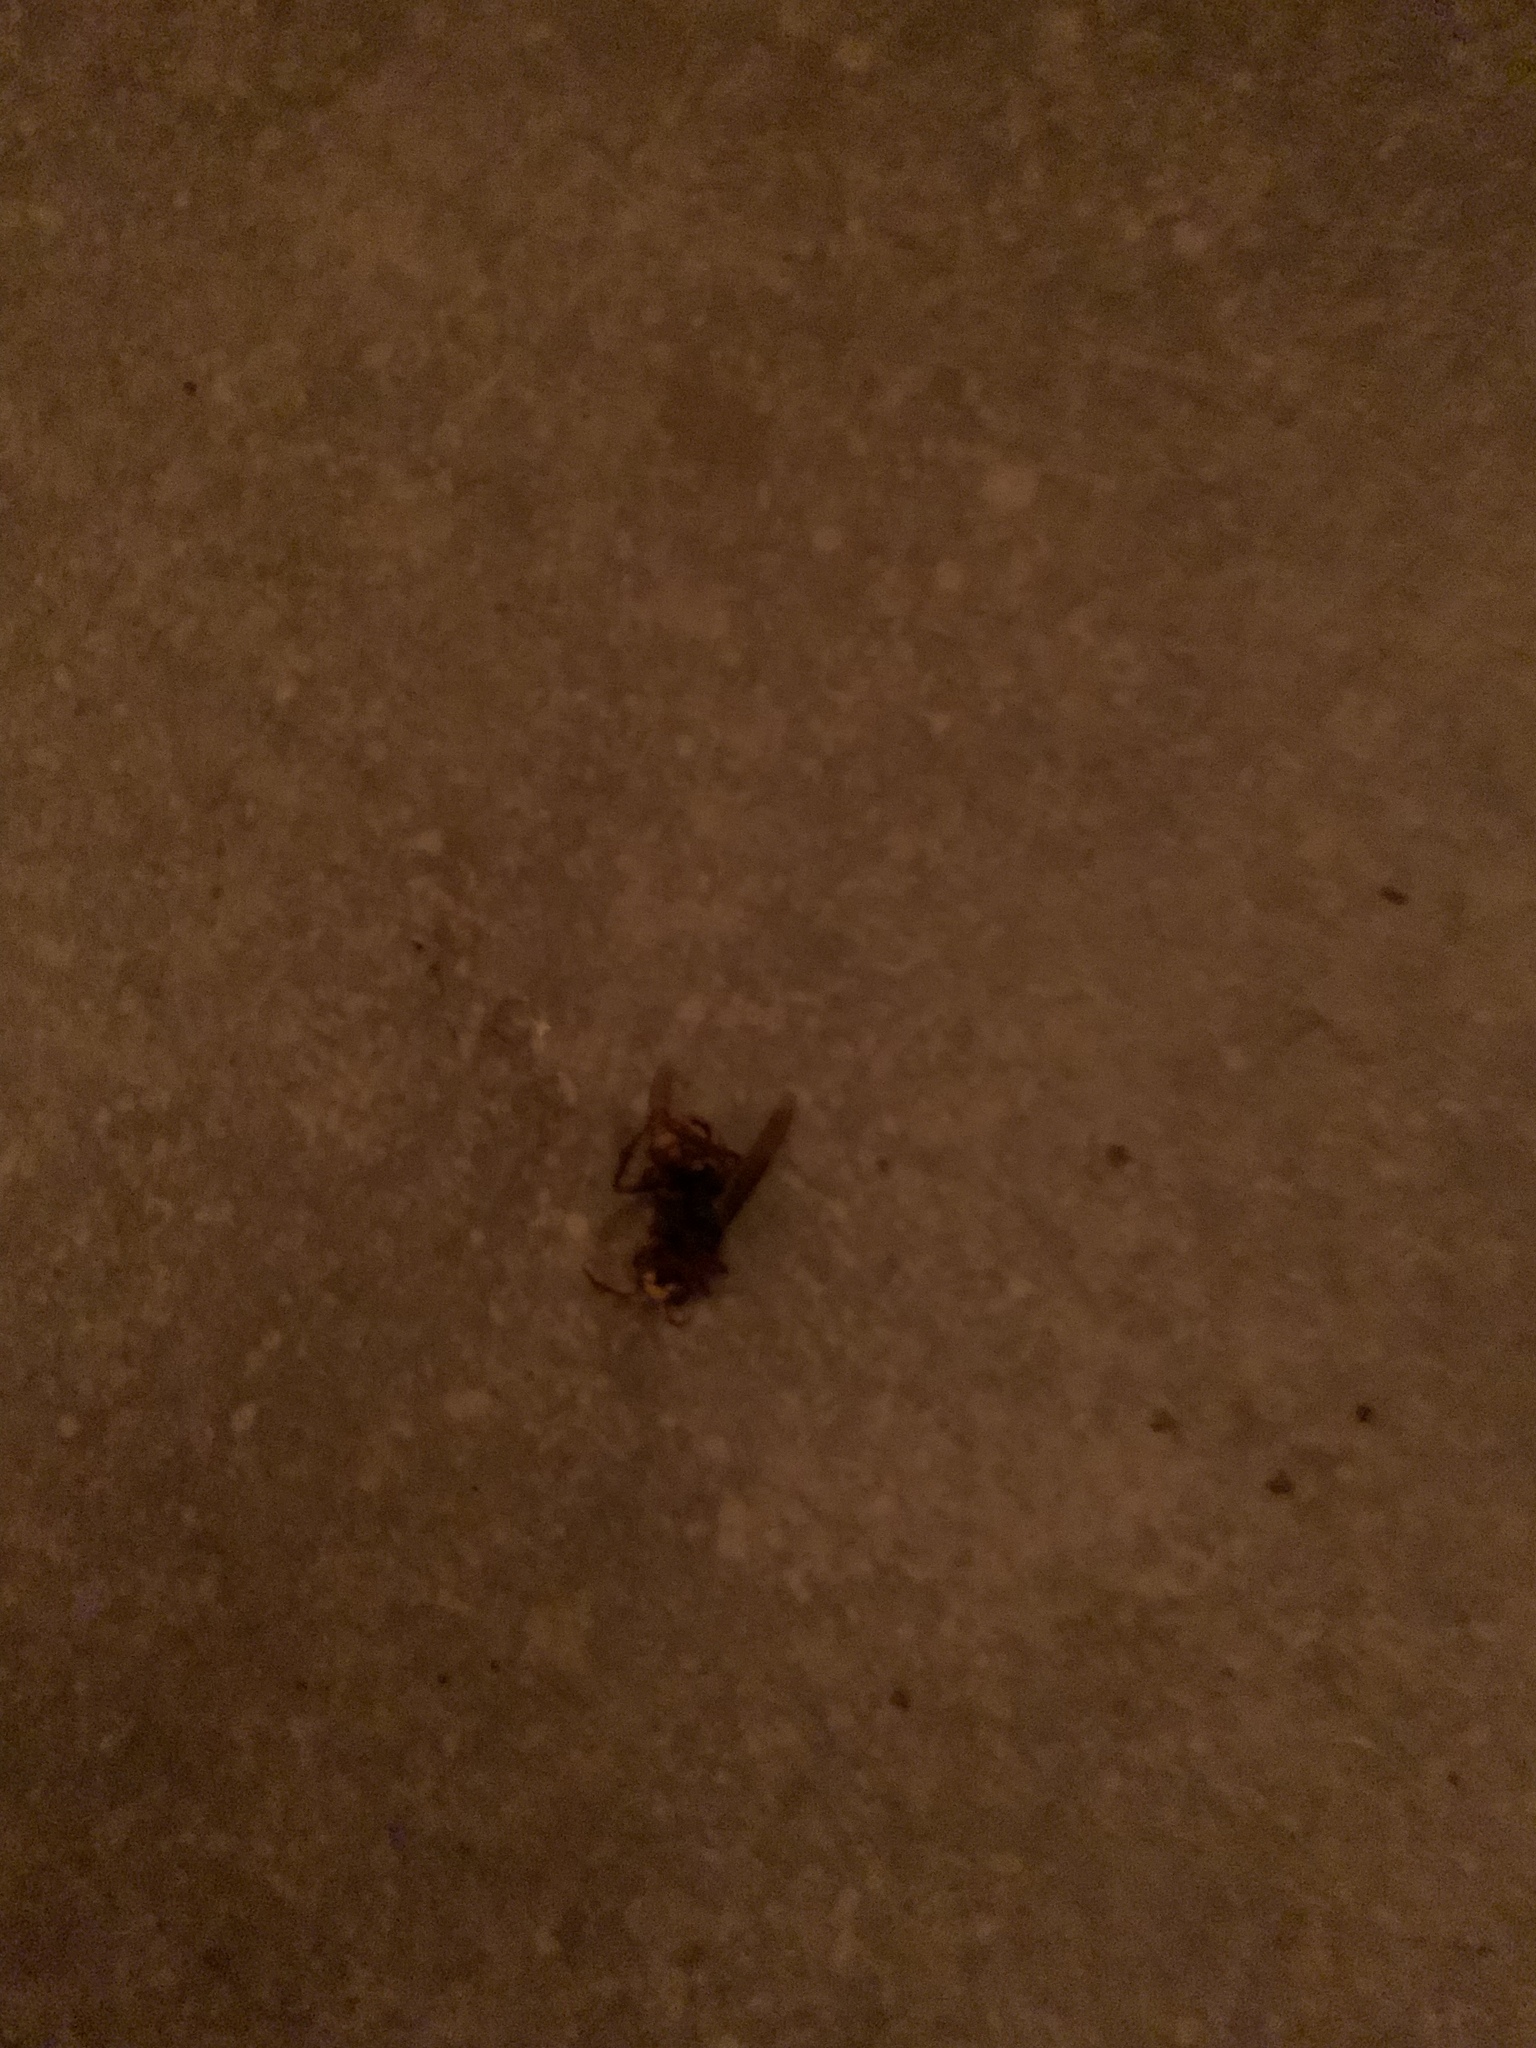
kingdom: Animalia
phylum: Arthropoda
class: Insecta
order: Hymenoptera
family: Vespidae
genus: Vespa
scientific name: Vespa crabro
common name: Hornet
